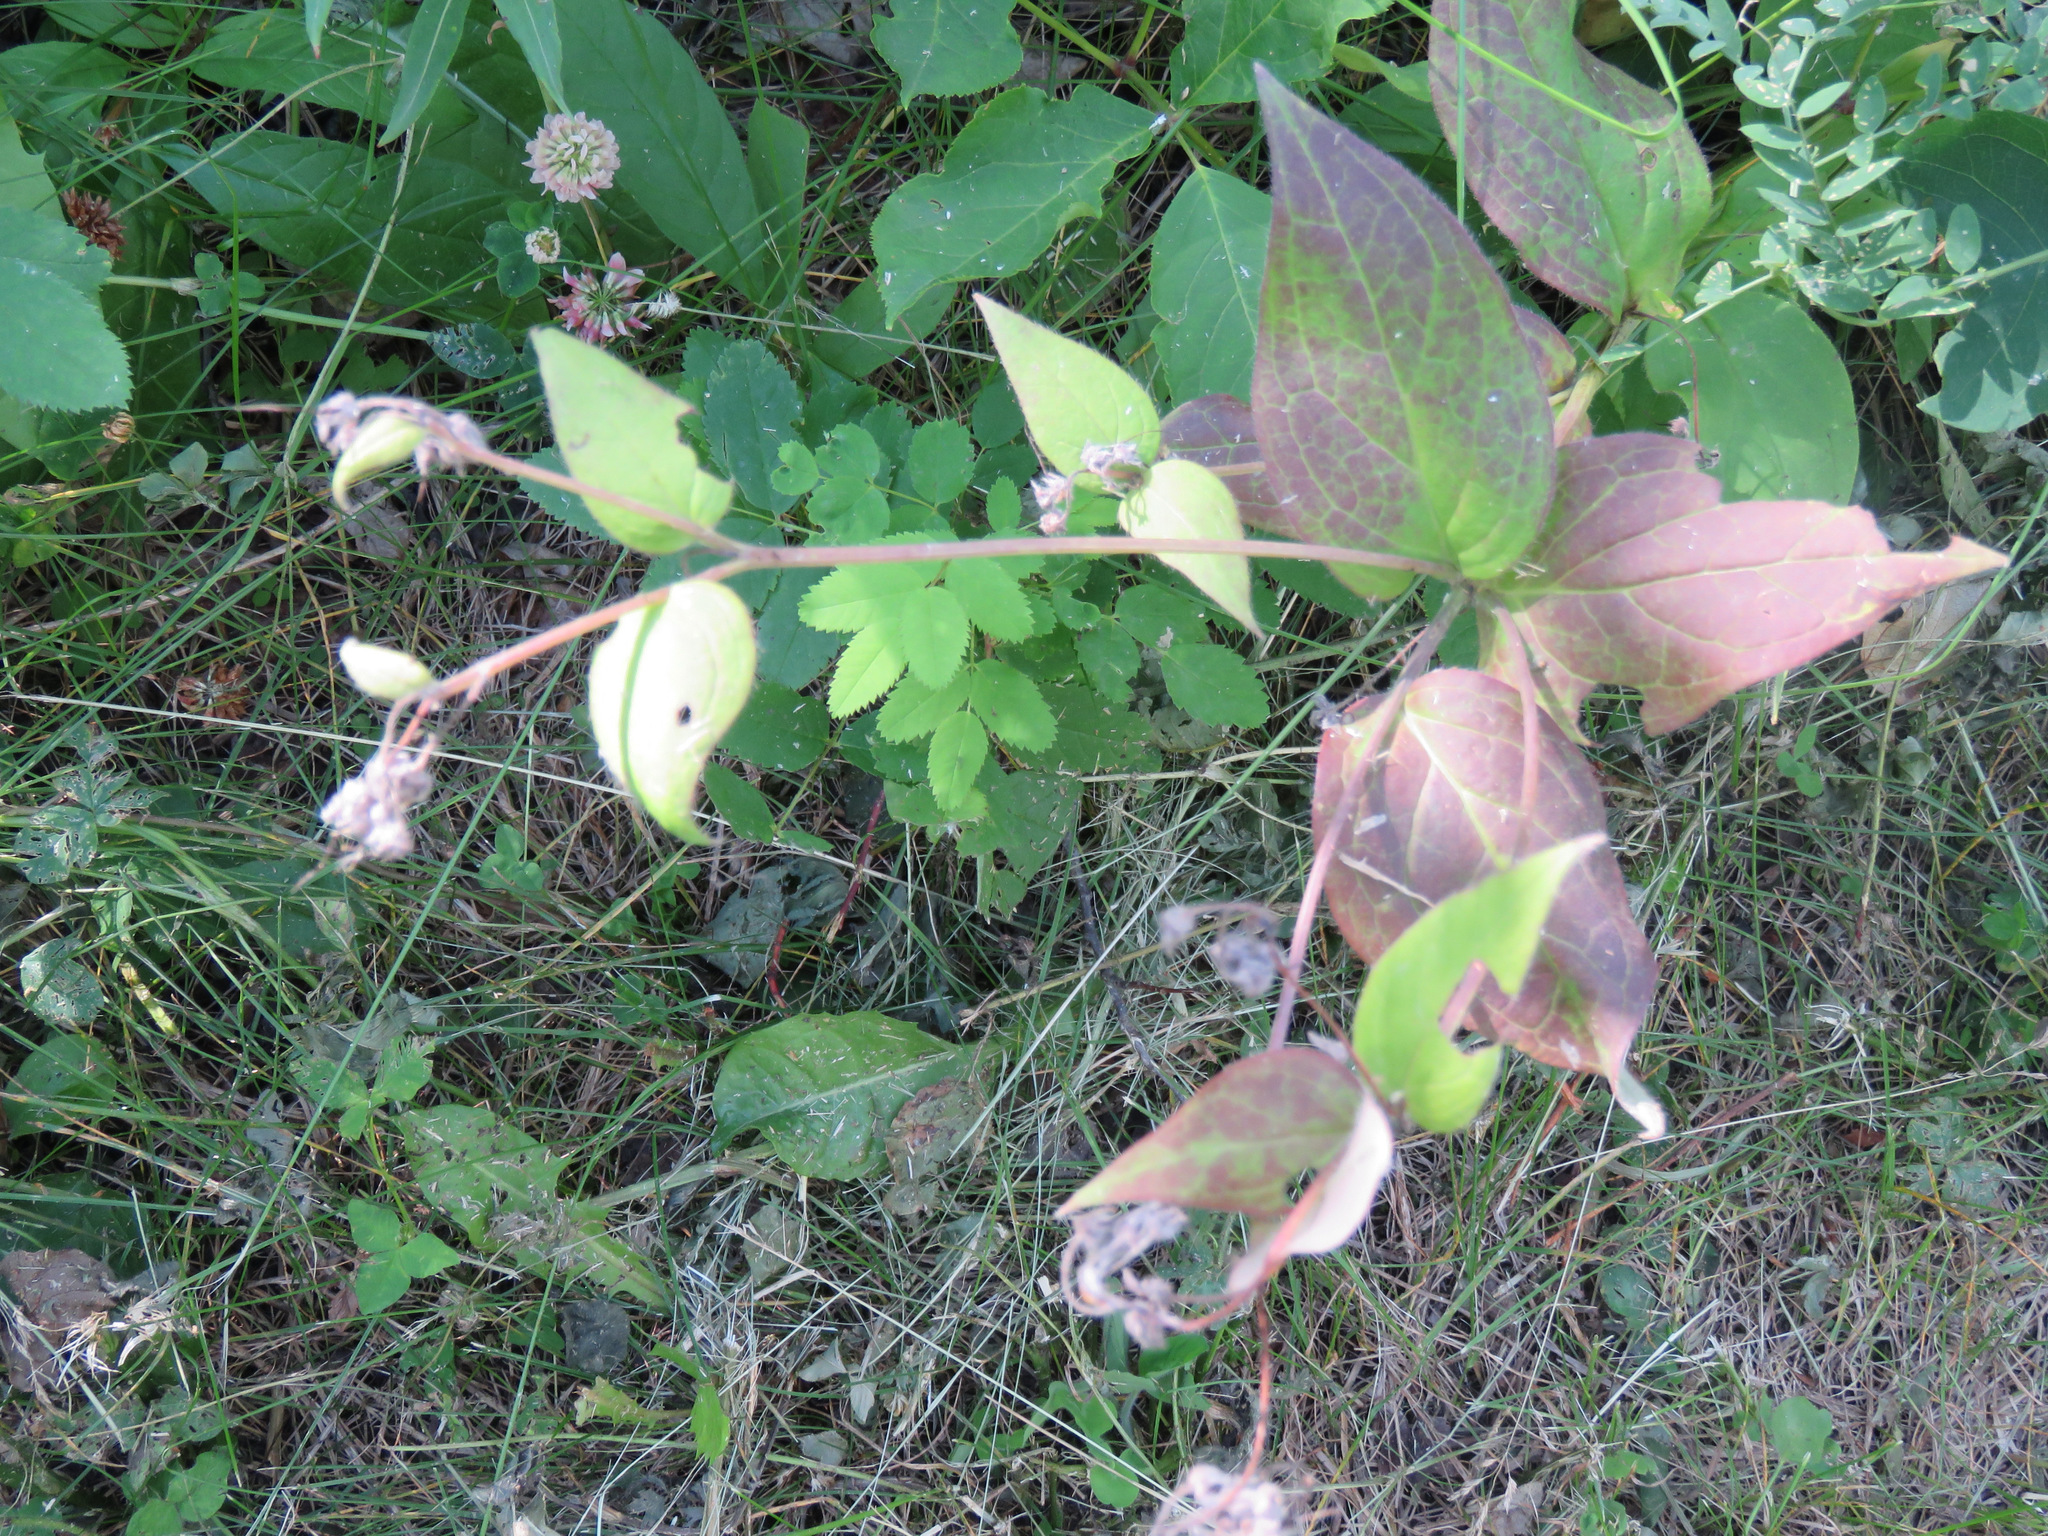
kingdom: Plantae
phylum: Tracheophyta
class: Magnoliopsida
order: Boraginales
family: Boraginaceae
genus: Mertensia
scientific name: Mertensia paniculata
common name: Panicled bluebells
